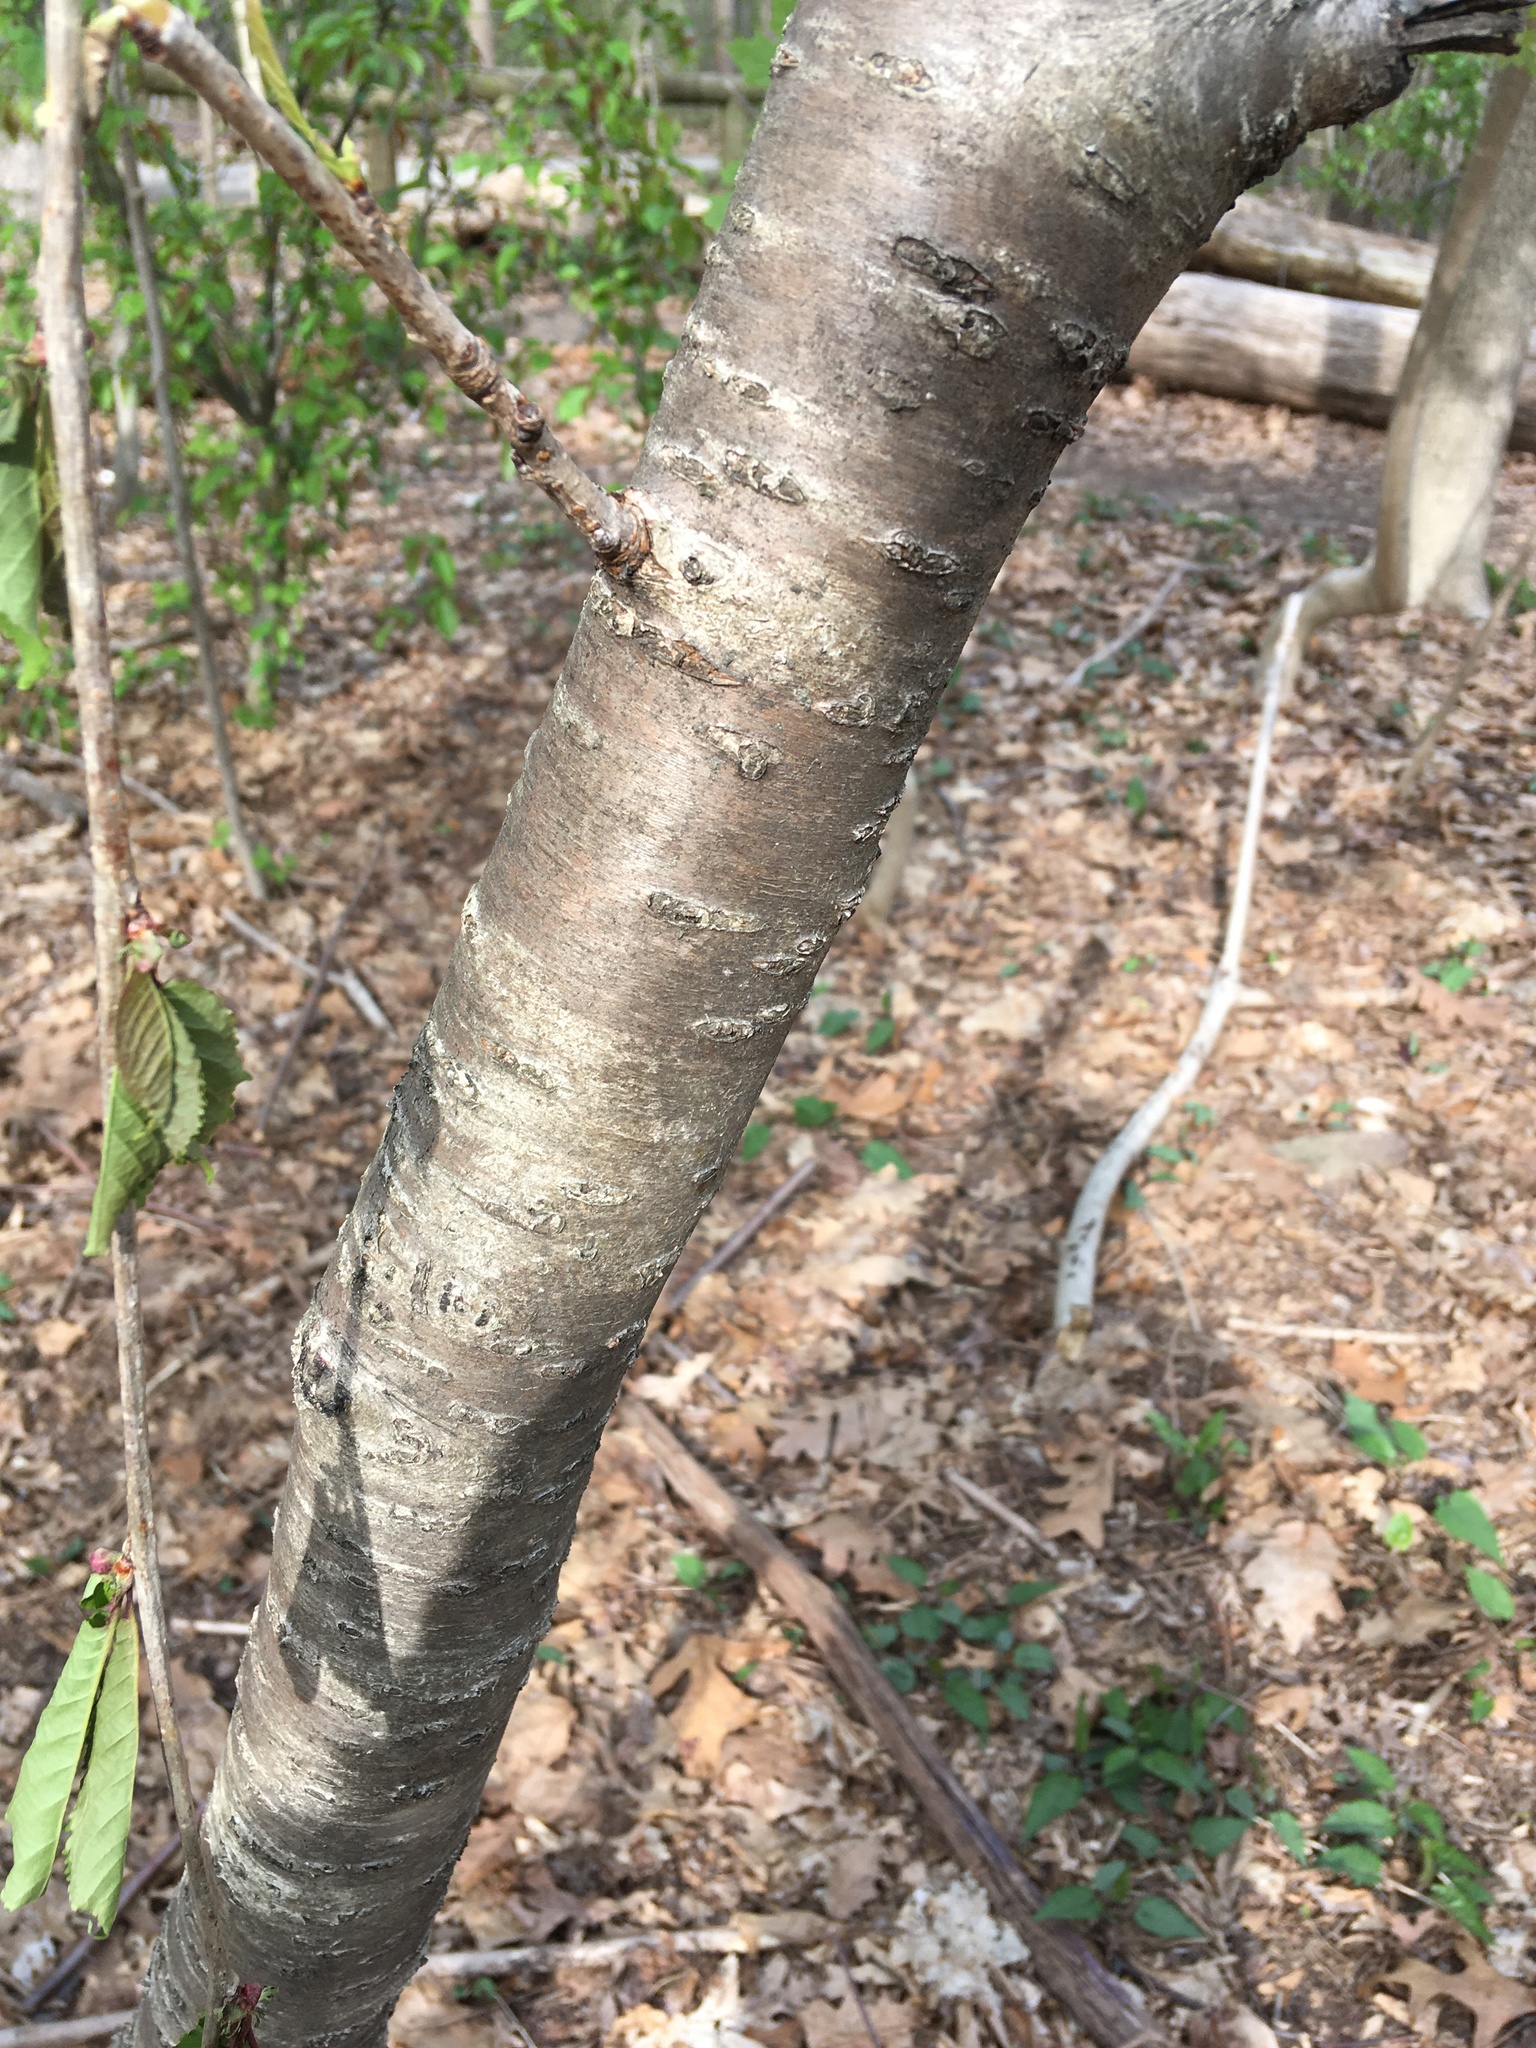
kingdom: Plantae
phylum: Tracheophyta
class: Magnoliopsida
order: Rosales
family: Rosaceae
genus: Prunus
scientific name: Prunus avium
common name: Sweet cherry
